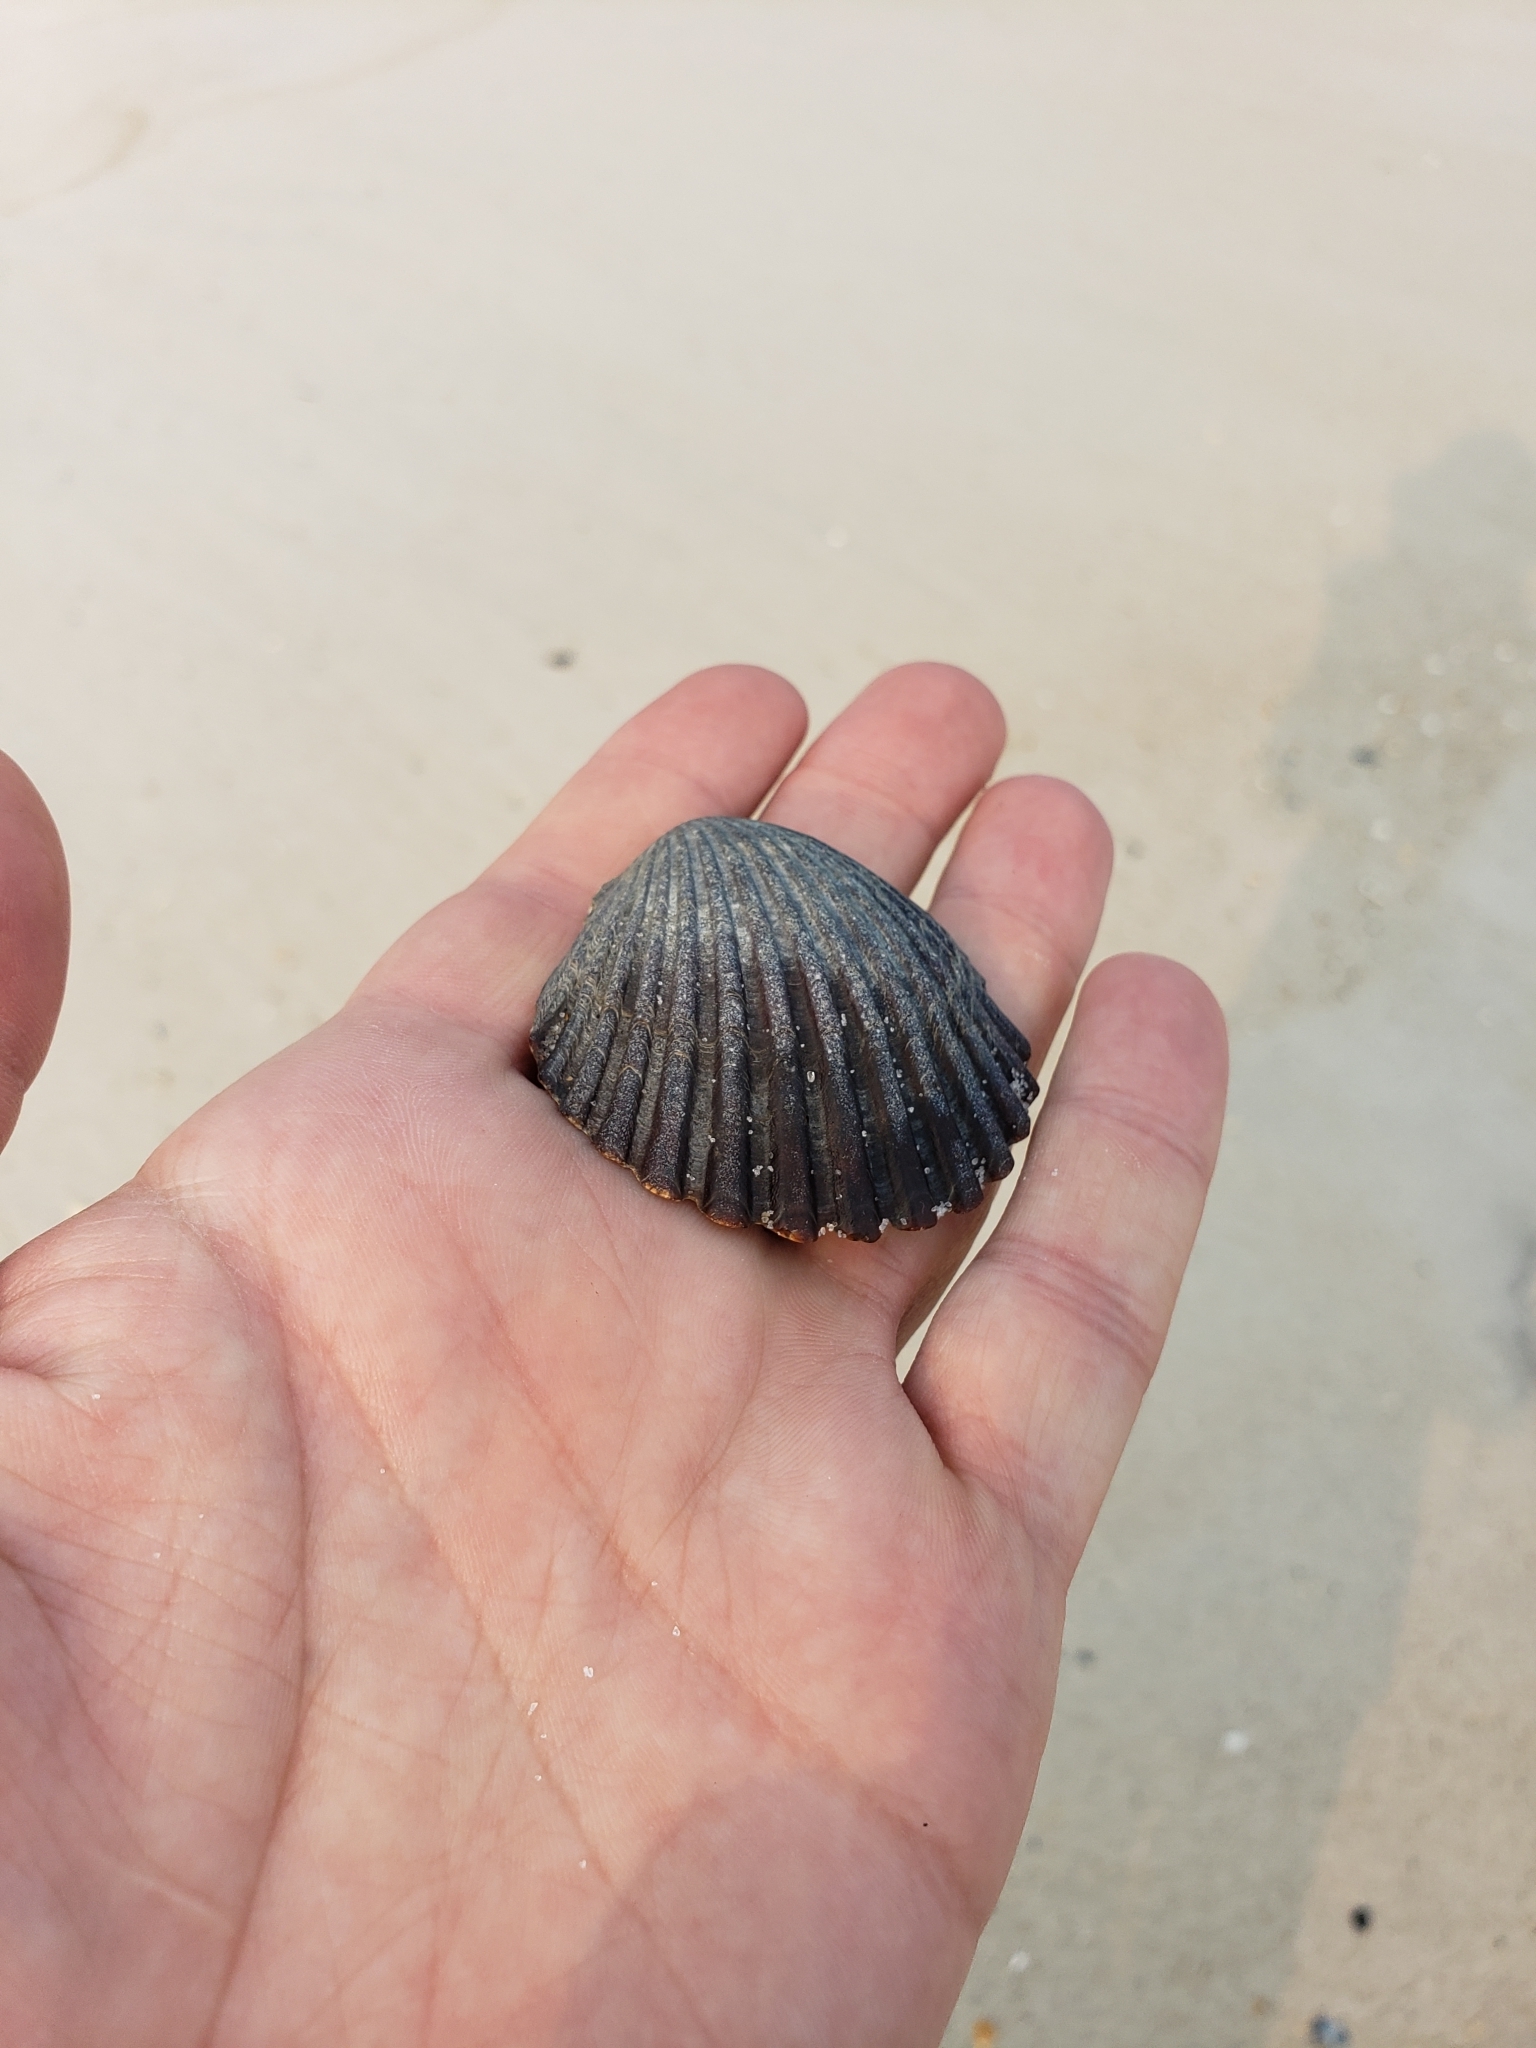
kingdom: Animalia
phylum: Mollusca
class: Bivalvia
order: Pectinida
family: Pectinidae
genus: Argopecten
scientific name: Argopecten irradians
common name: Atlantic bay scallop
